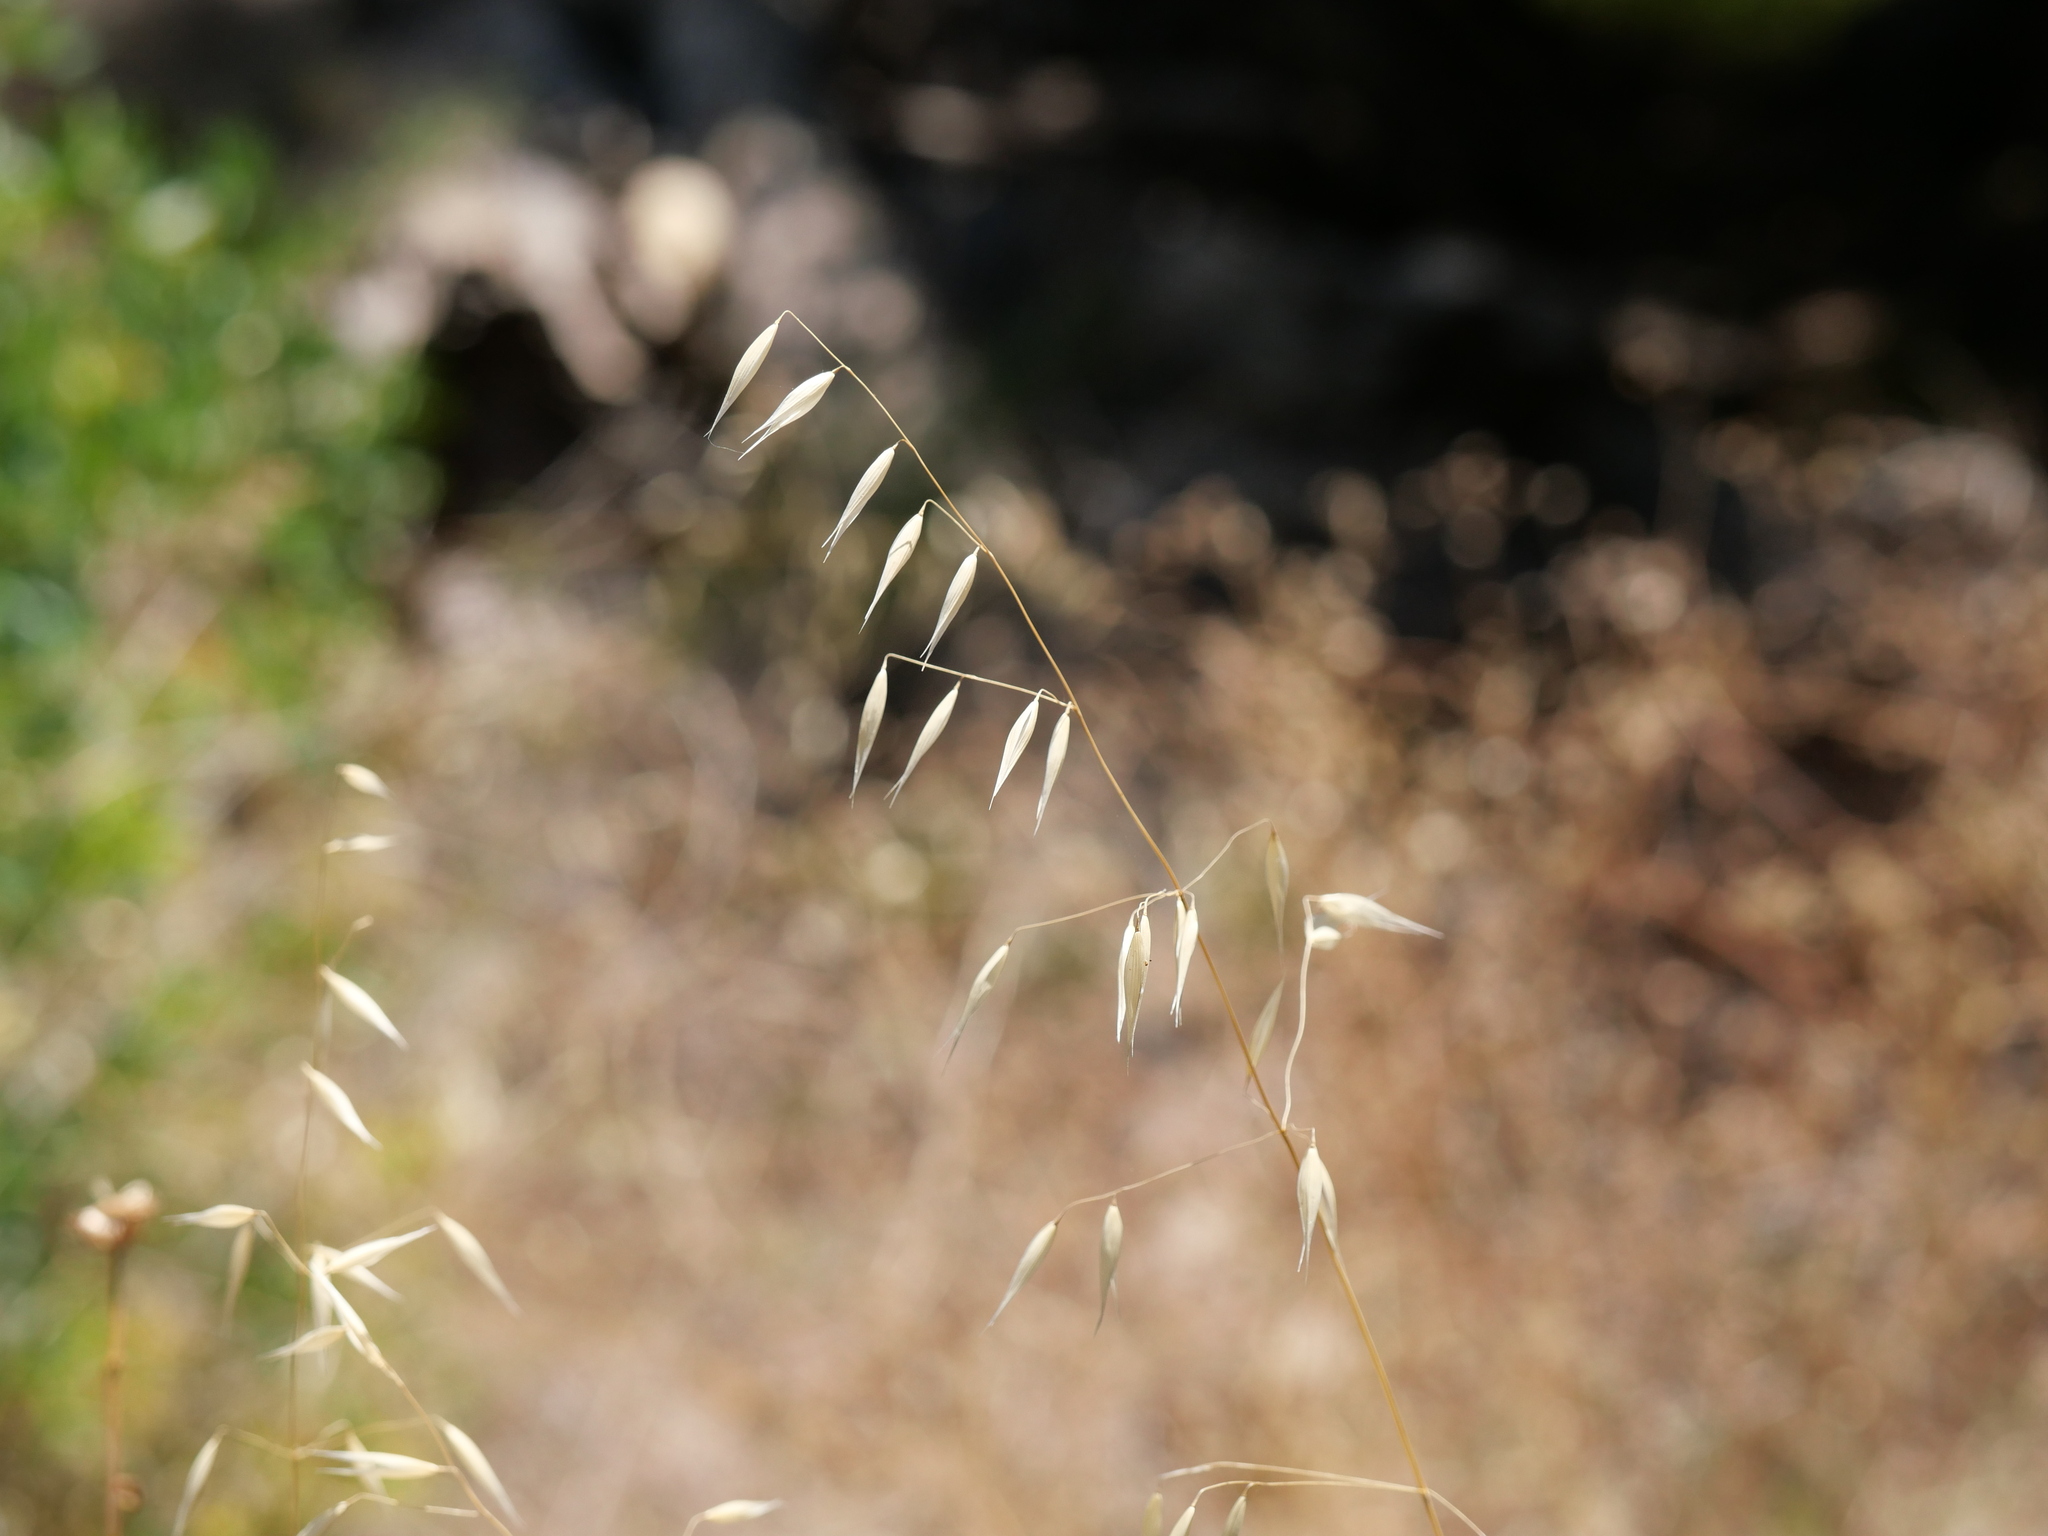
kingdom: Plantae
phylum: Tracheophyta
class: Liliopsida
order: Poales
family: Poaceae
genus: Avena
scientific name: Avena barbata
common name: Slender oat
